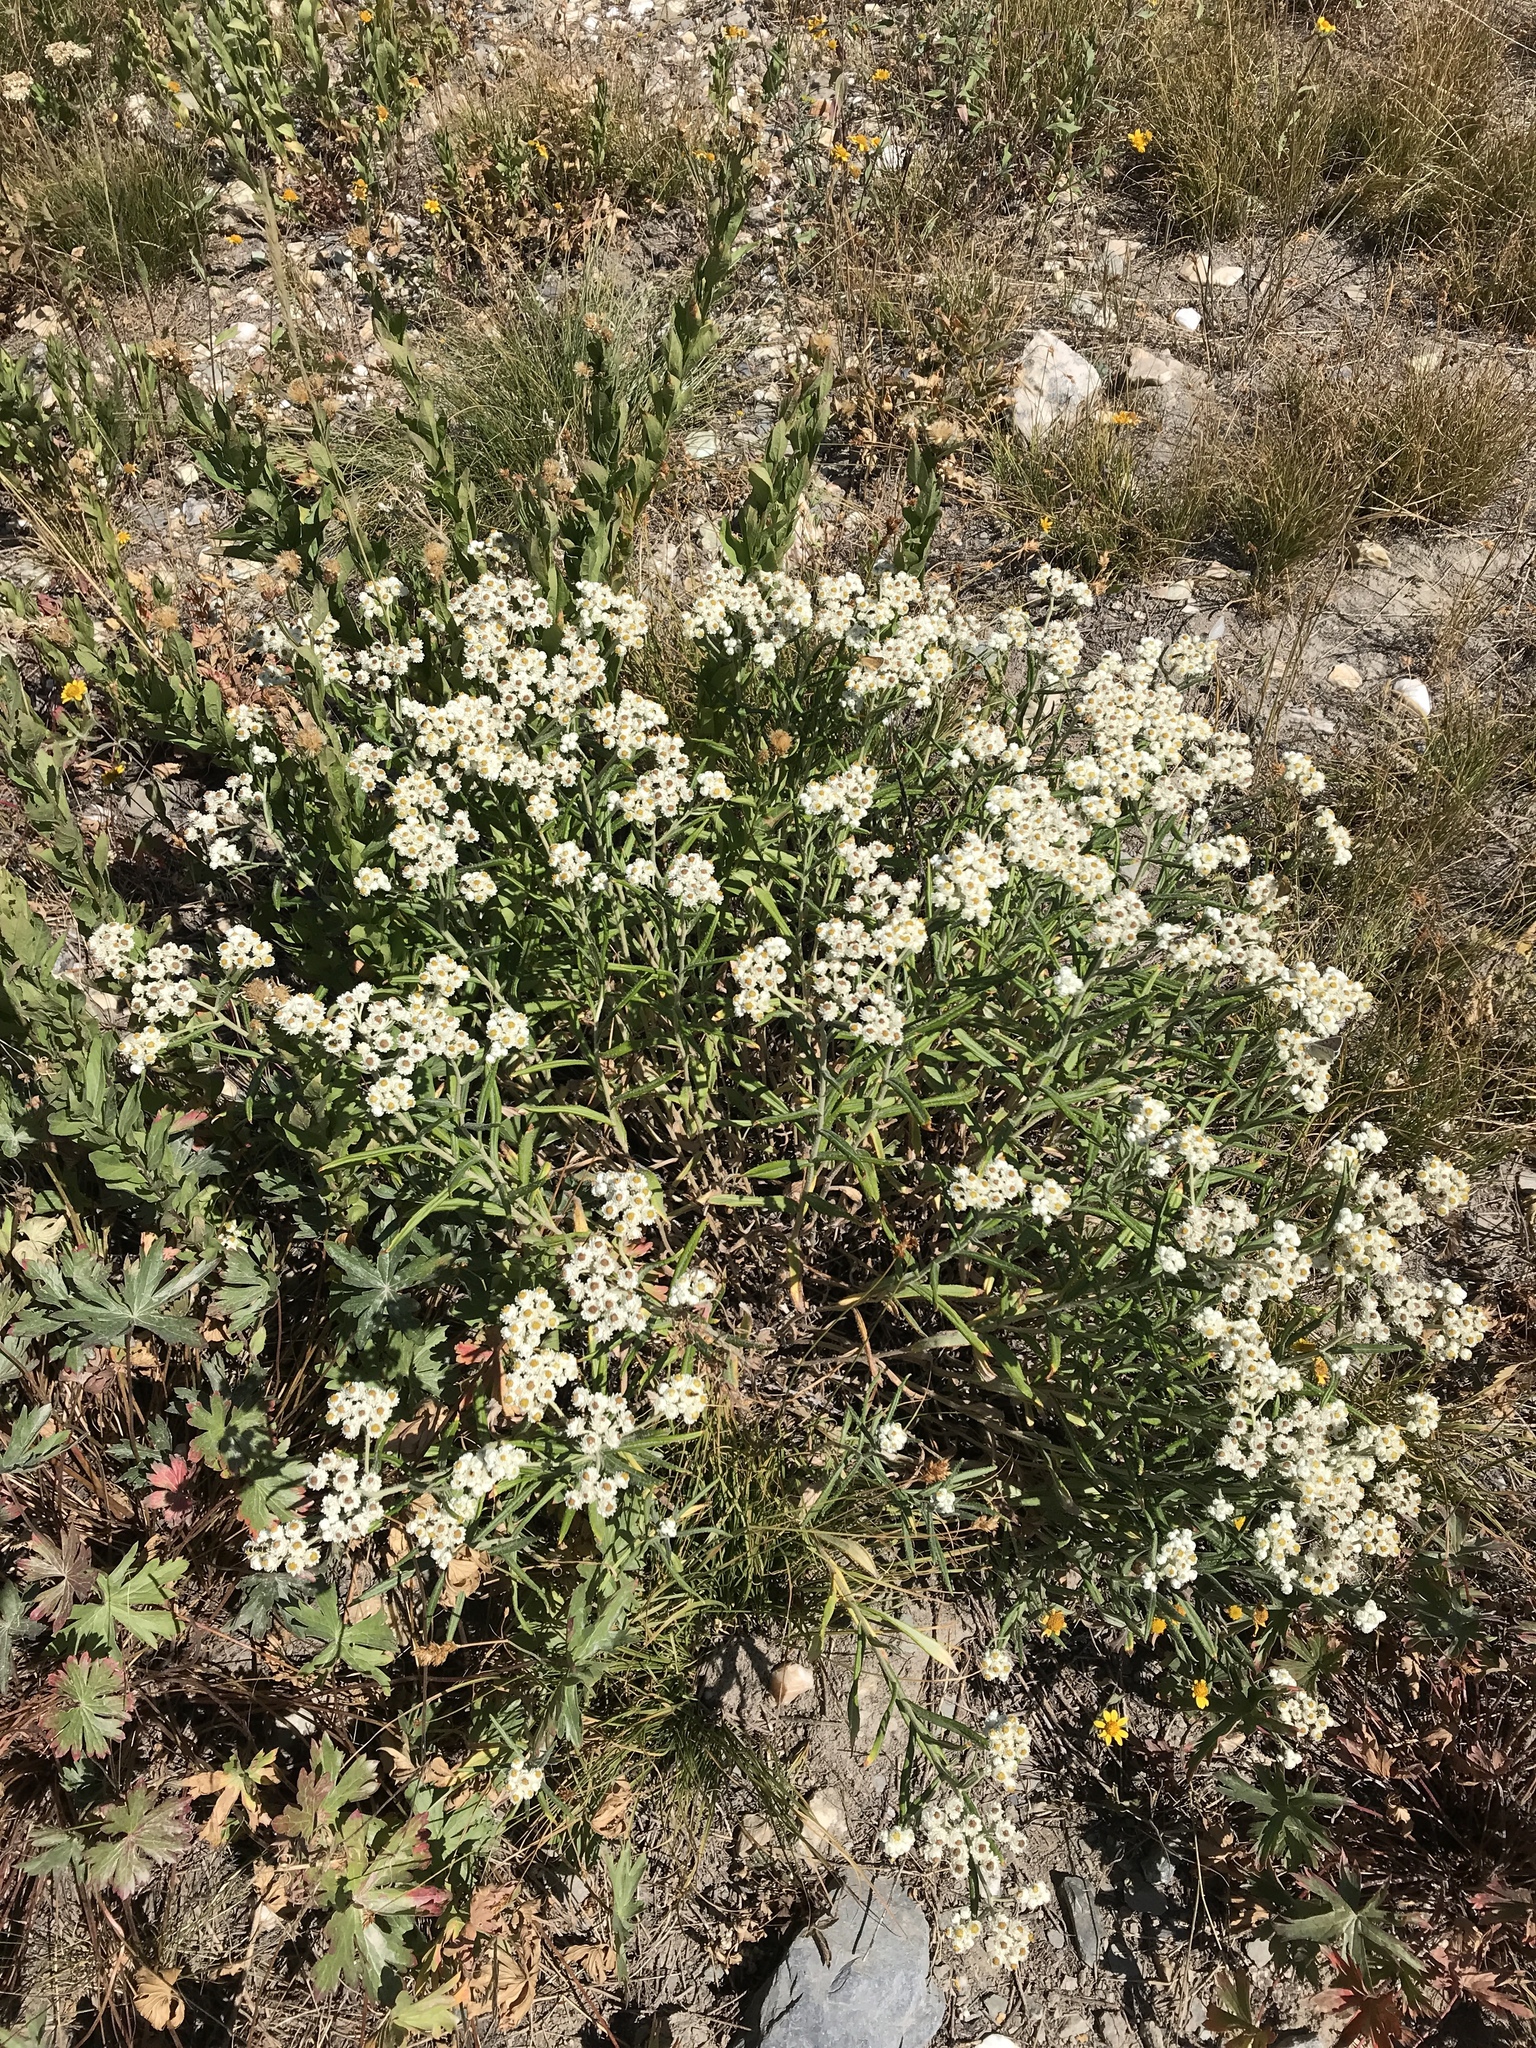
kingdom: Plantae
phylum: Tracheophyta
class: Magnoliopsida
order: Asterales
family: Asteraceae
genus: Anaphalis
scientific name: Anaphalis margaritacea
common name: Pearly everlasting
